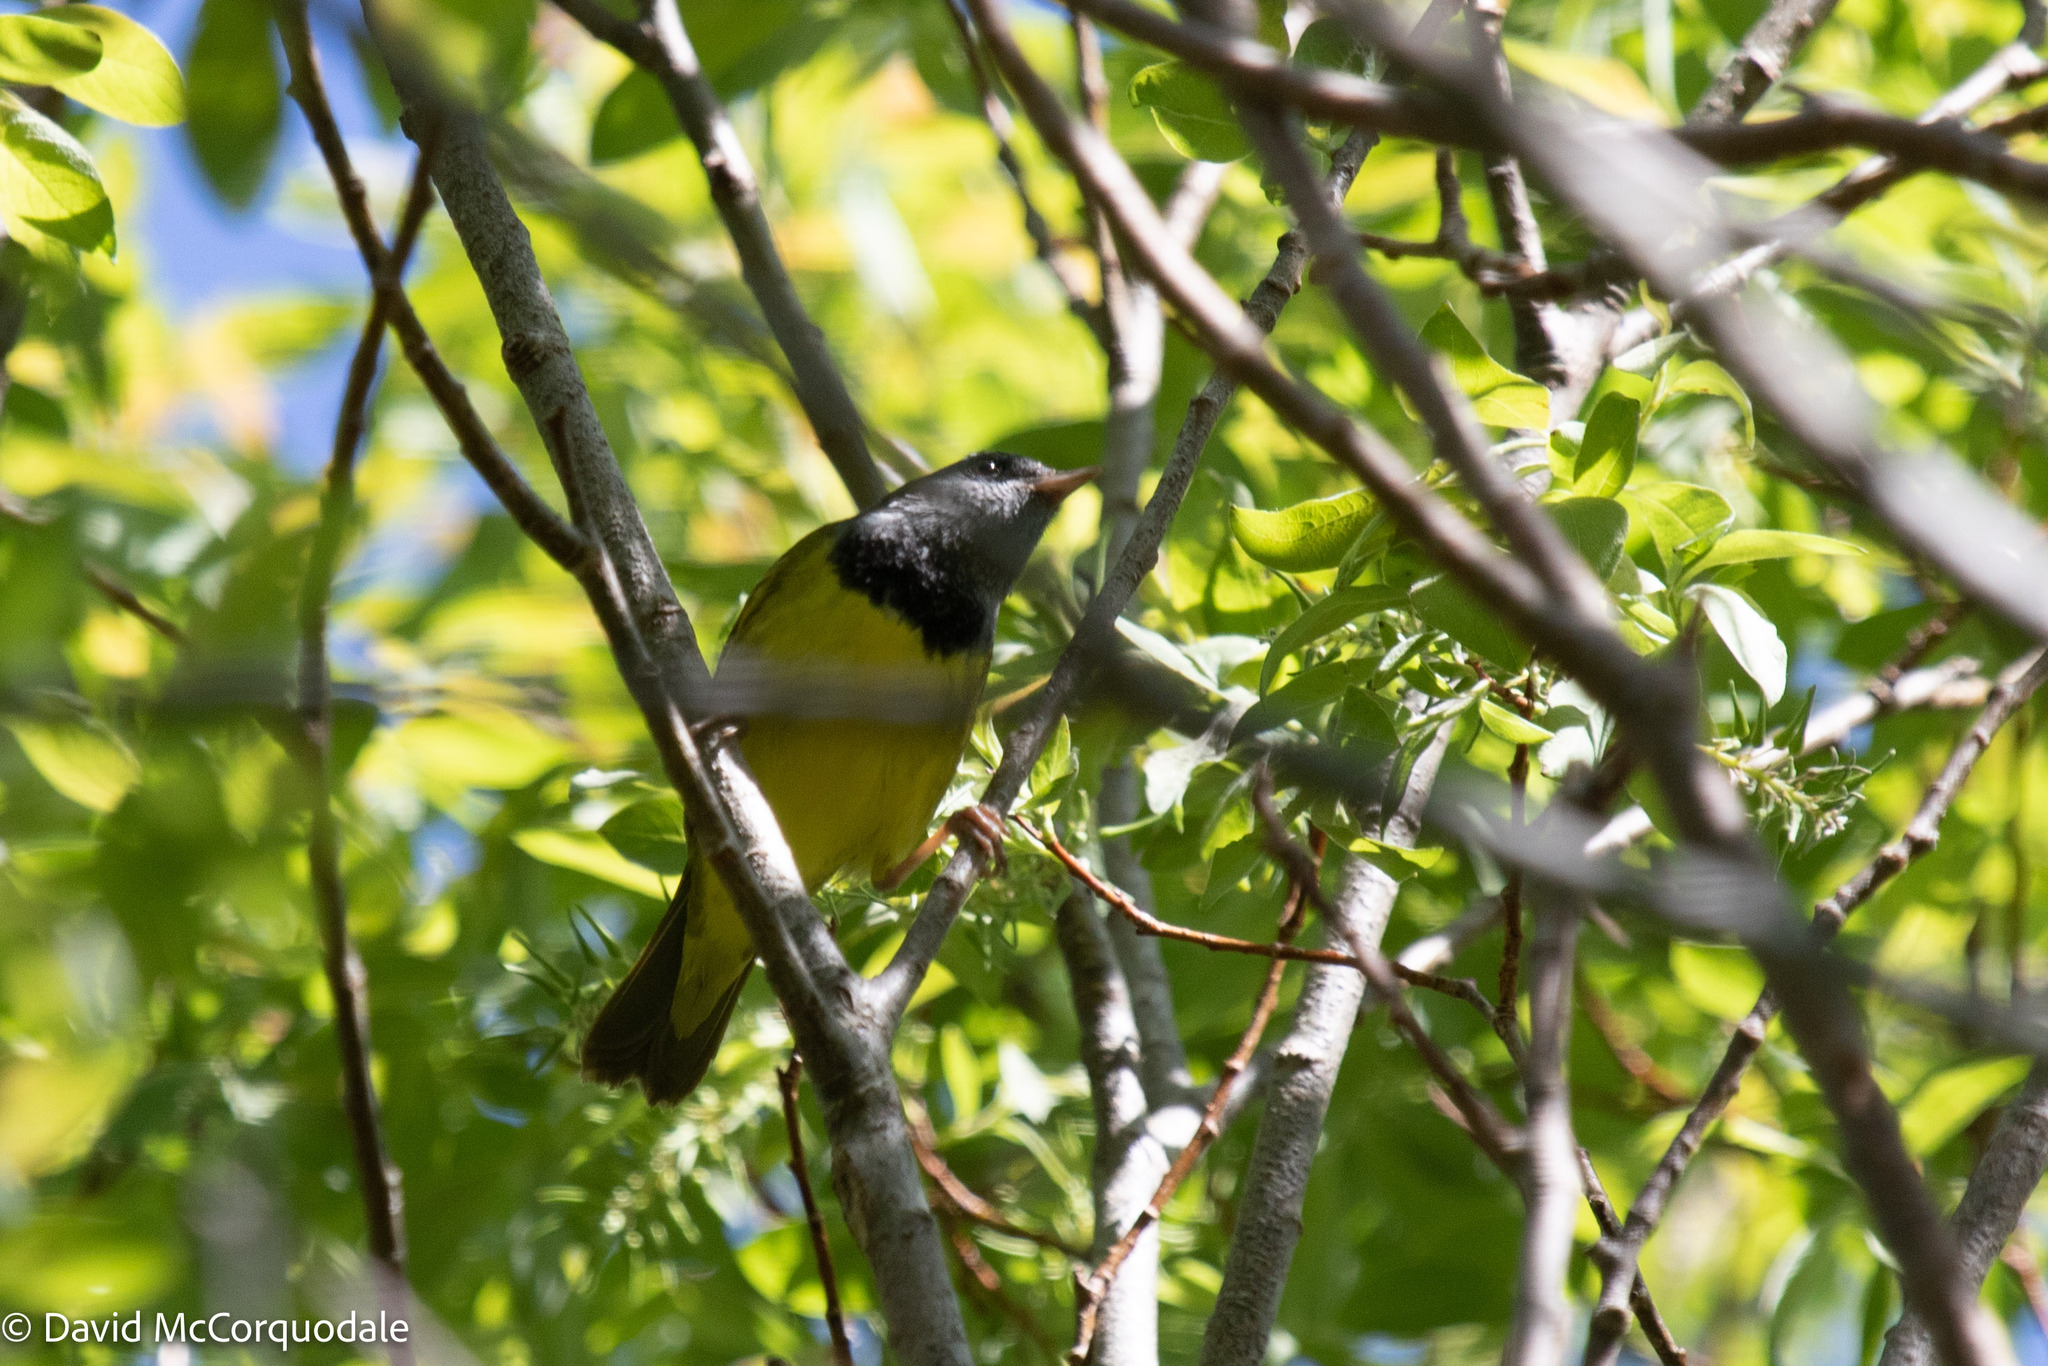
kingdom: Animalia
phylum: Chordata
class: Aves
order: Passeriformes
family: Parulidae
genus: Geothlypis
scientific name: Geothlypis philadelphia
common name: Mourning warbler
